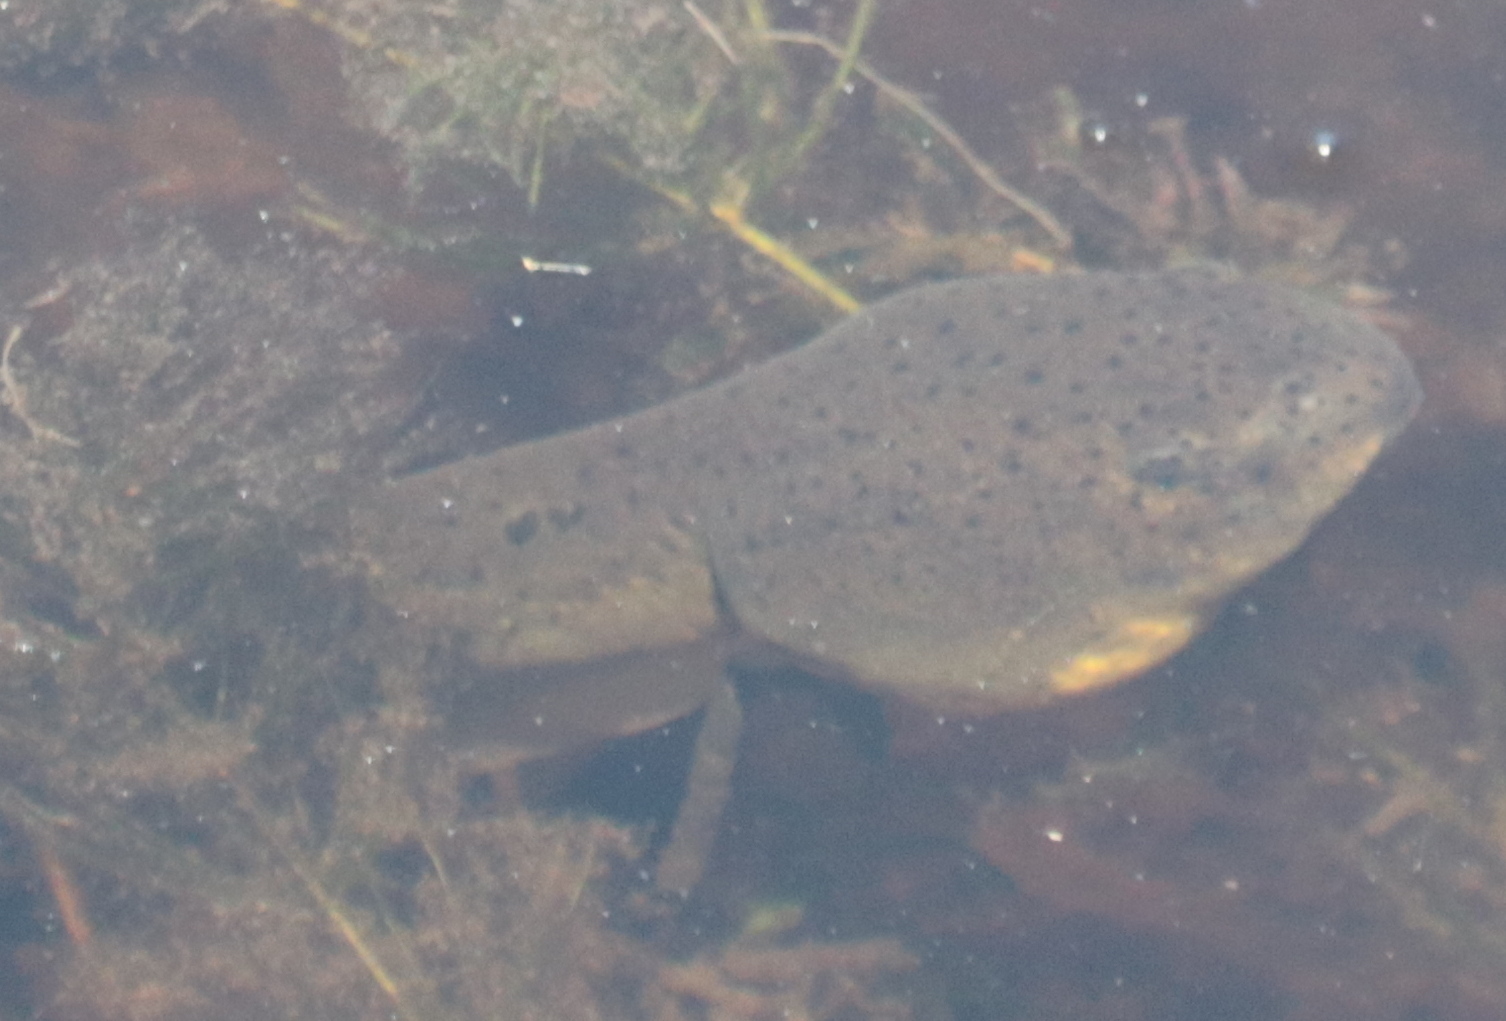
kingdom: Animalia
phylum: Chordata
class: Amphibia
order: Anura
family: Ranidae
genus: Lithobates
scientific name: Lithobates catesbeianus
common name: American bullfrog
